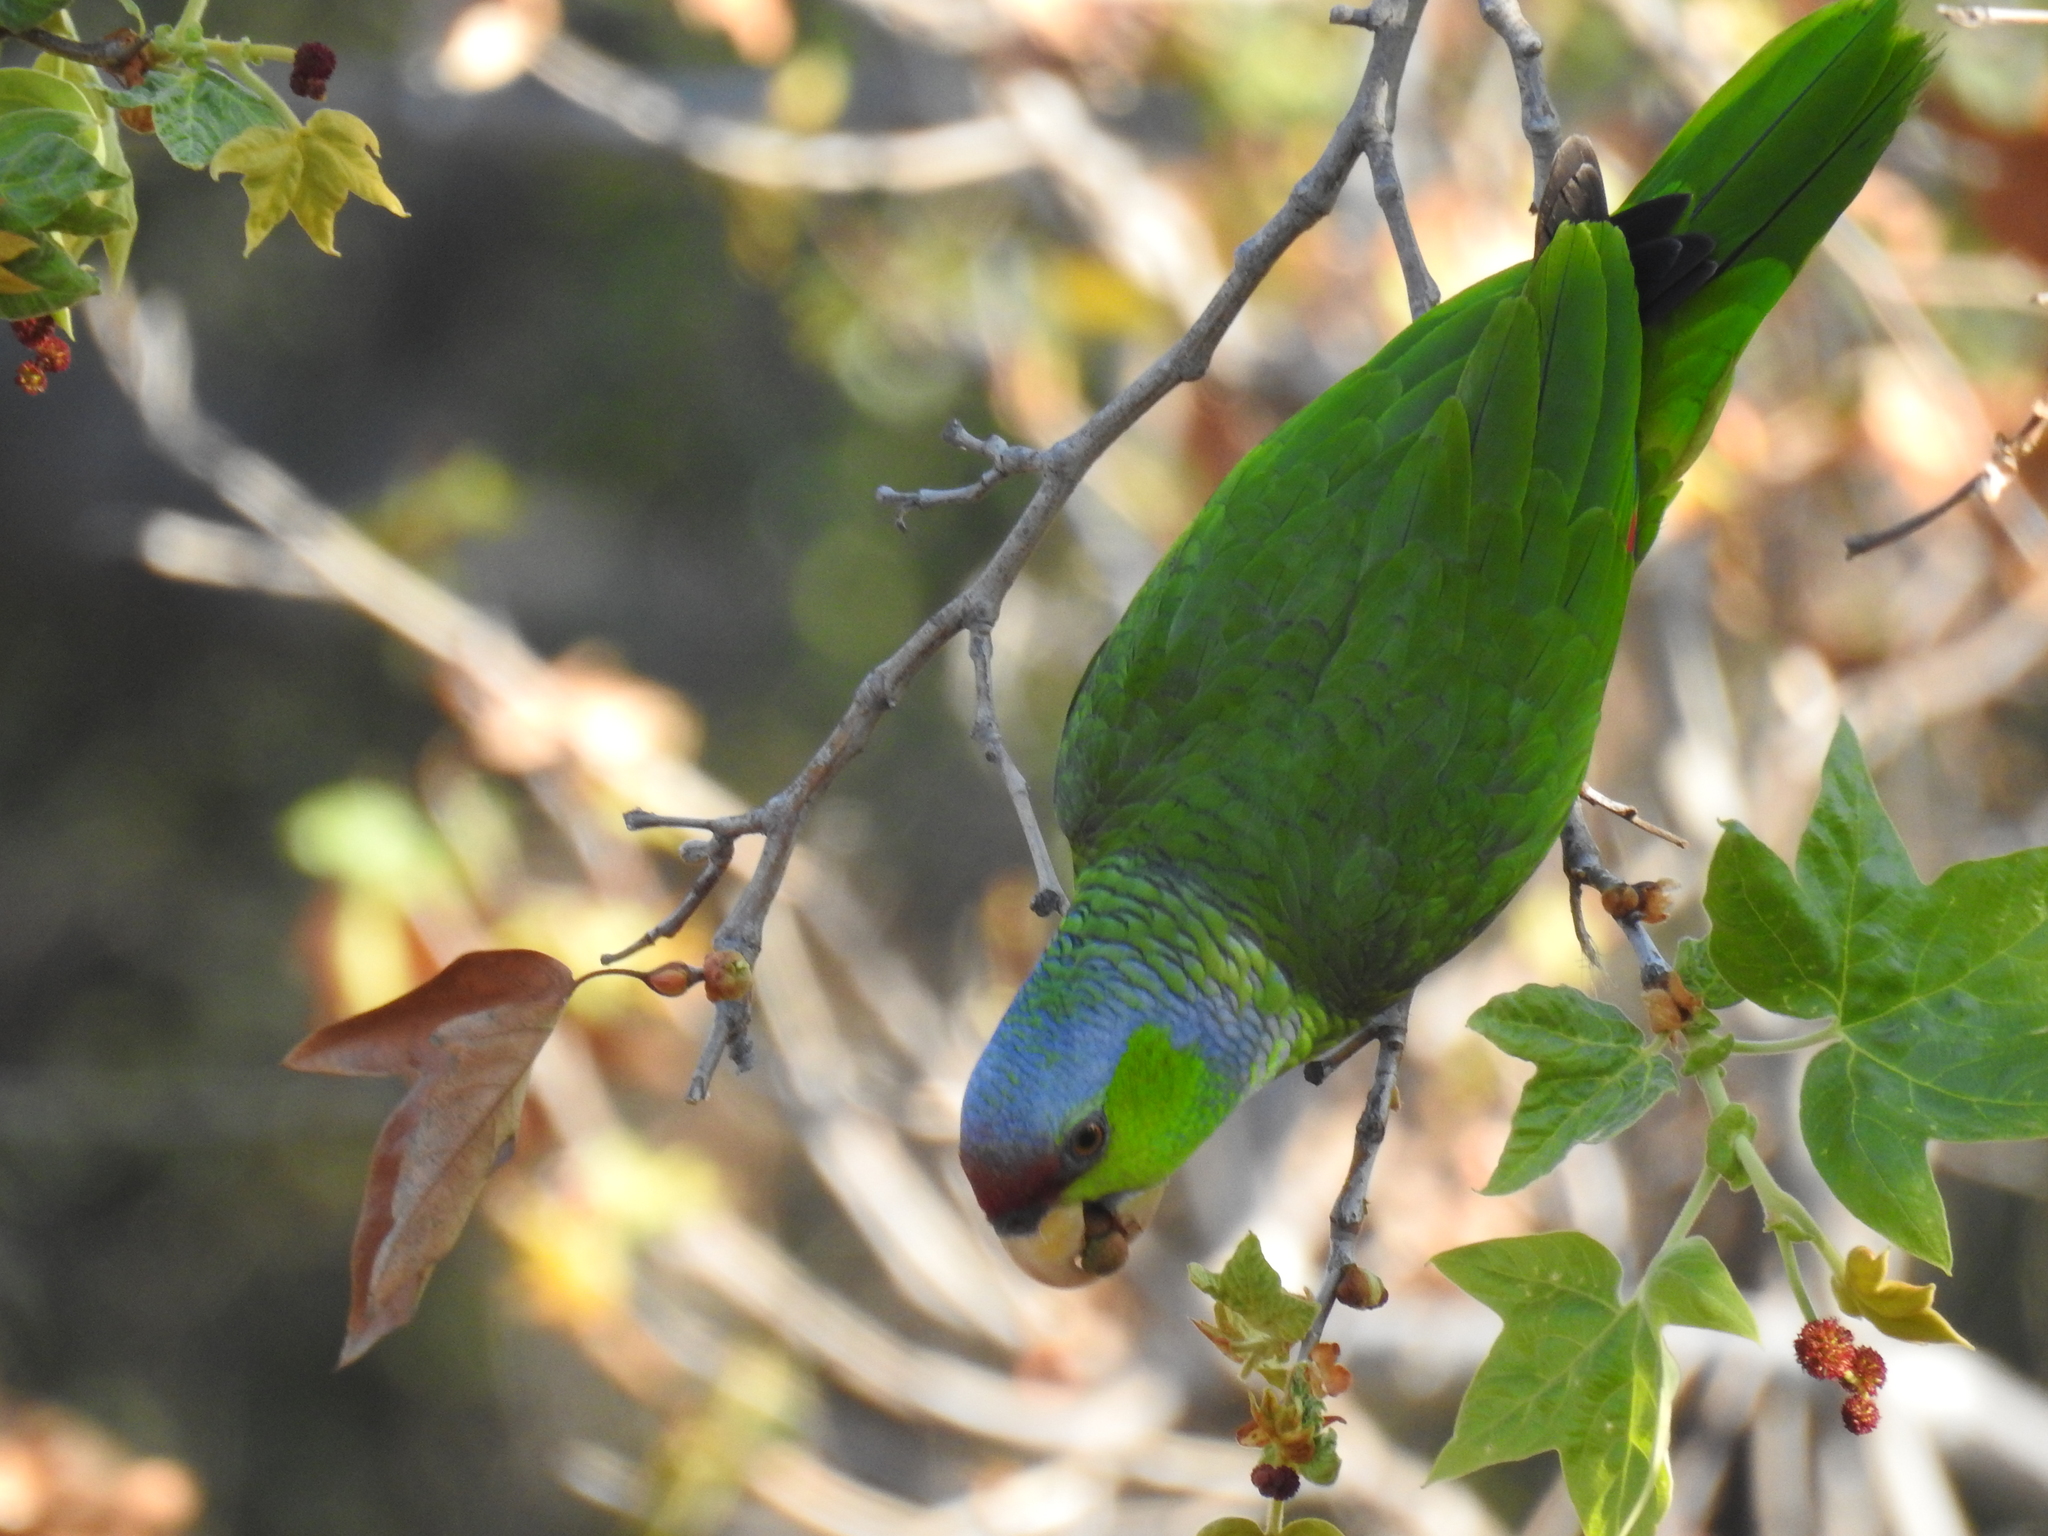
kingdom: Animalia
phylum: Chordata
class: Aves
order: Psittaciformes
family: Psittacidae
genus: Amazona
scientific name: Amazona finschi
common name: Lilac-crowned amazon
